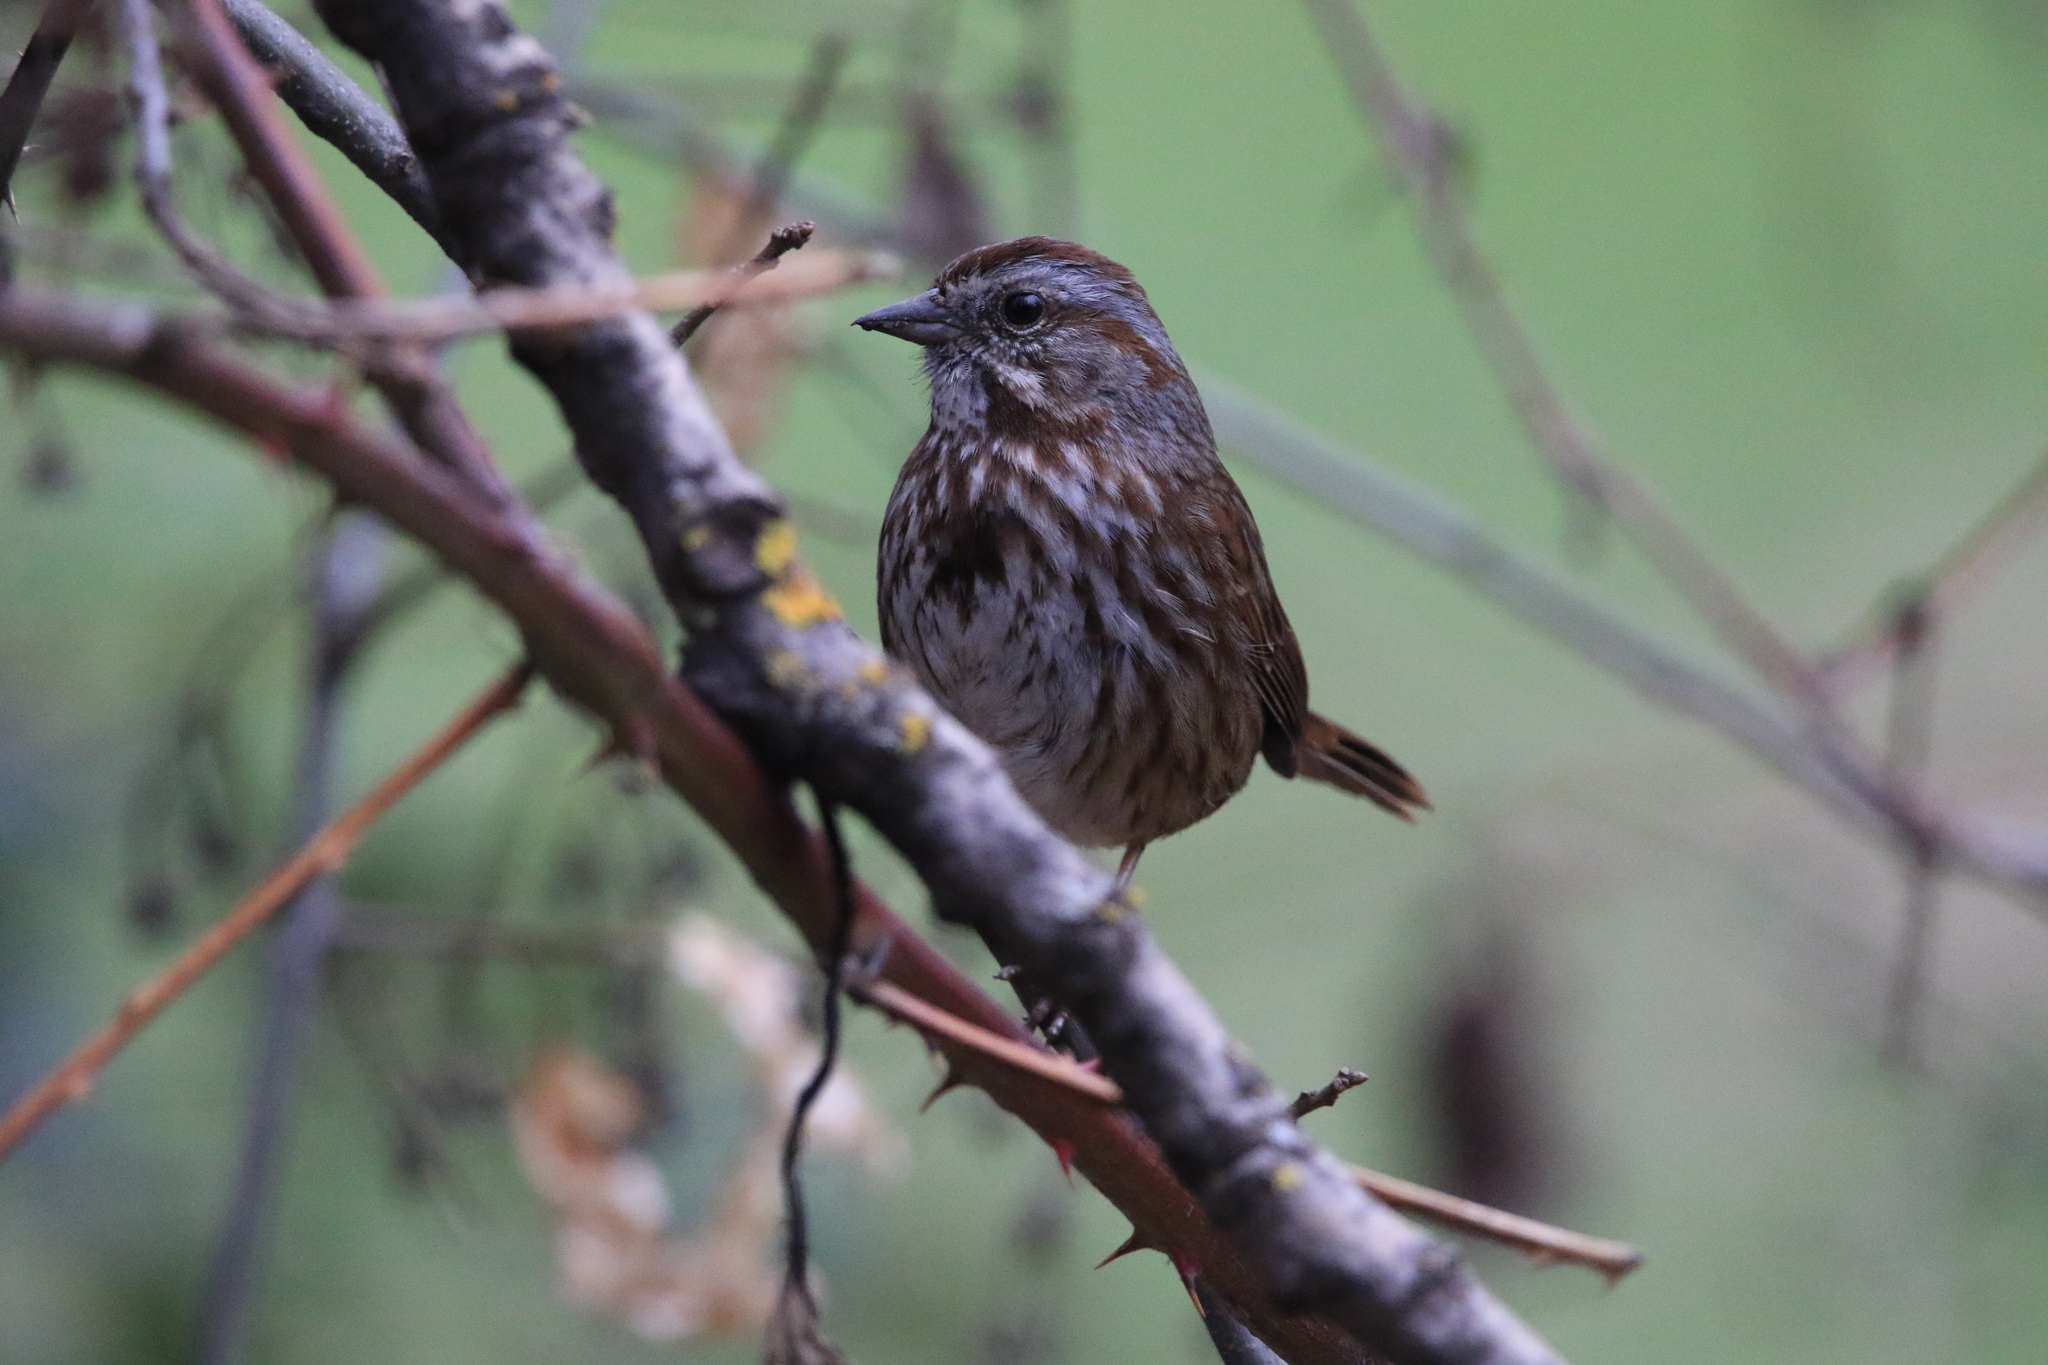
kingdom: Animalia
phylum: Chordata
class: Aves
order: Passeriformes
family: Passerellidae
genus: Melospiza
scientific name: Melospiza melodia
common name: Song sparrow
